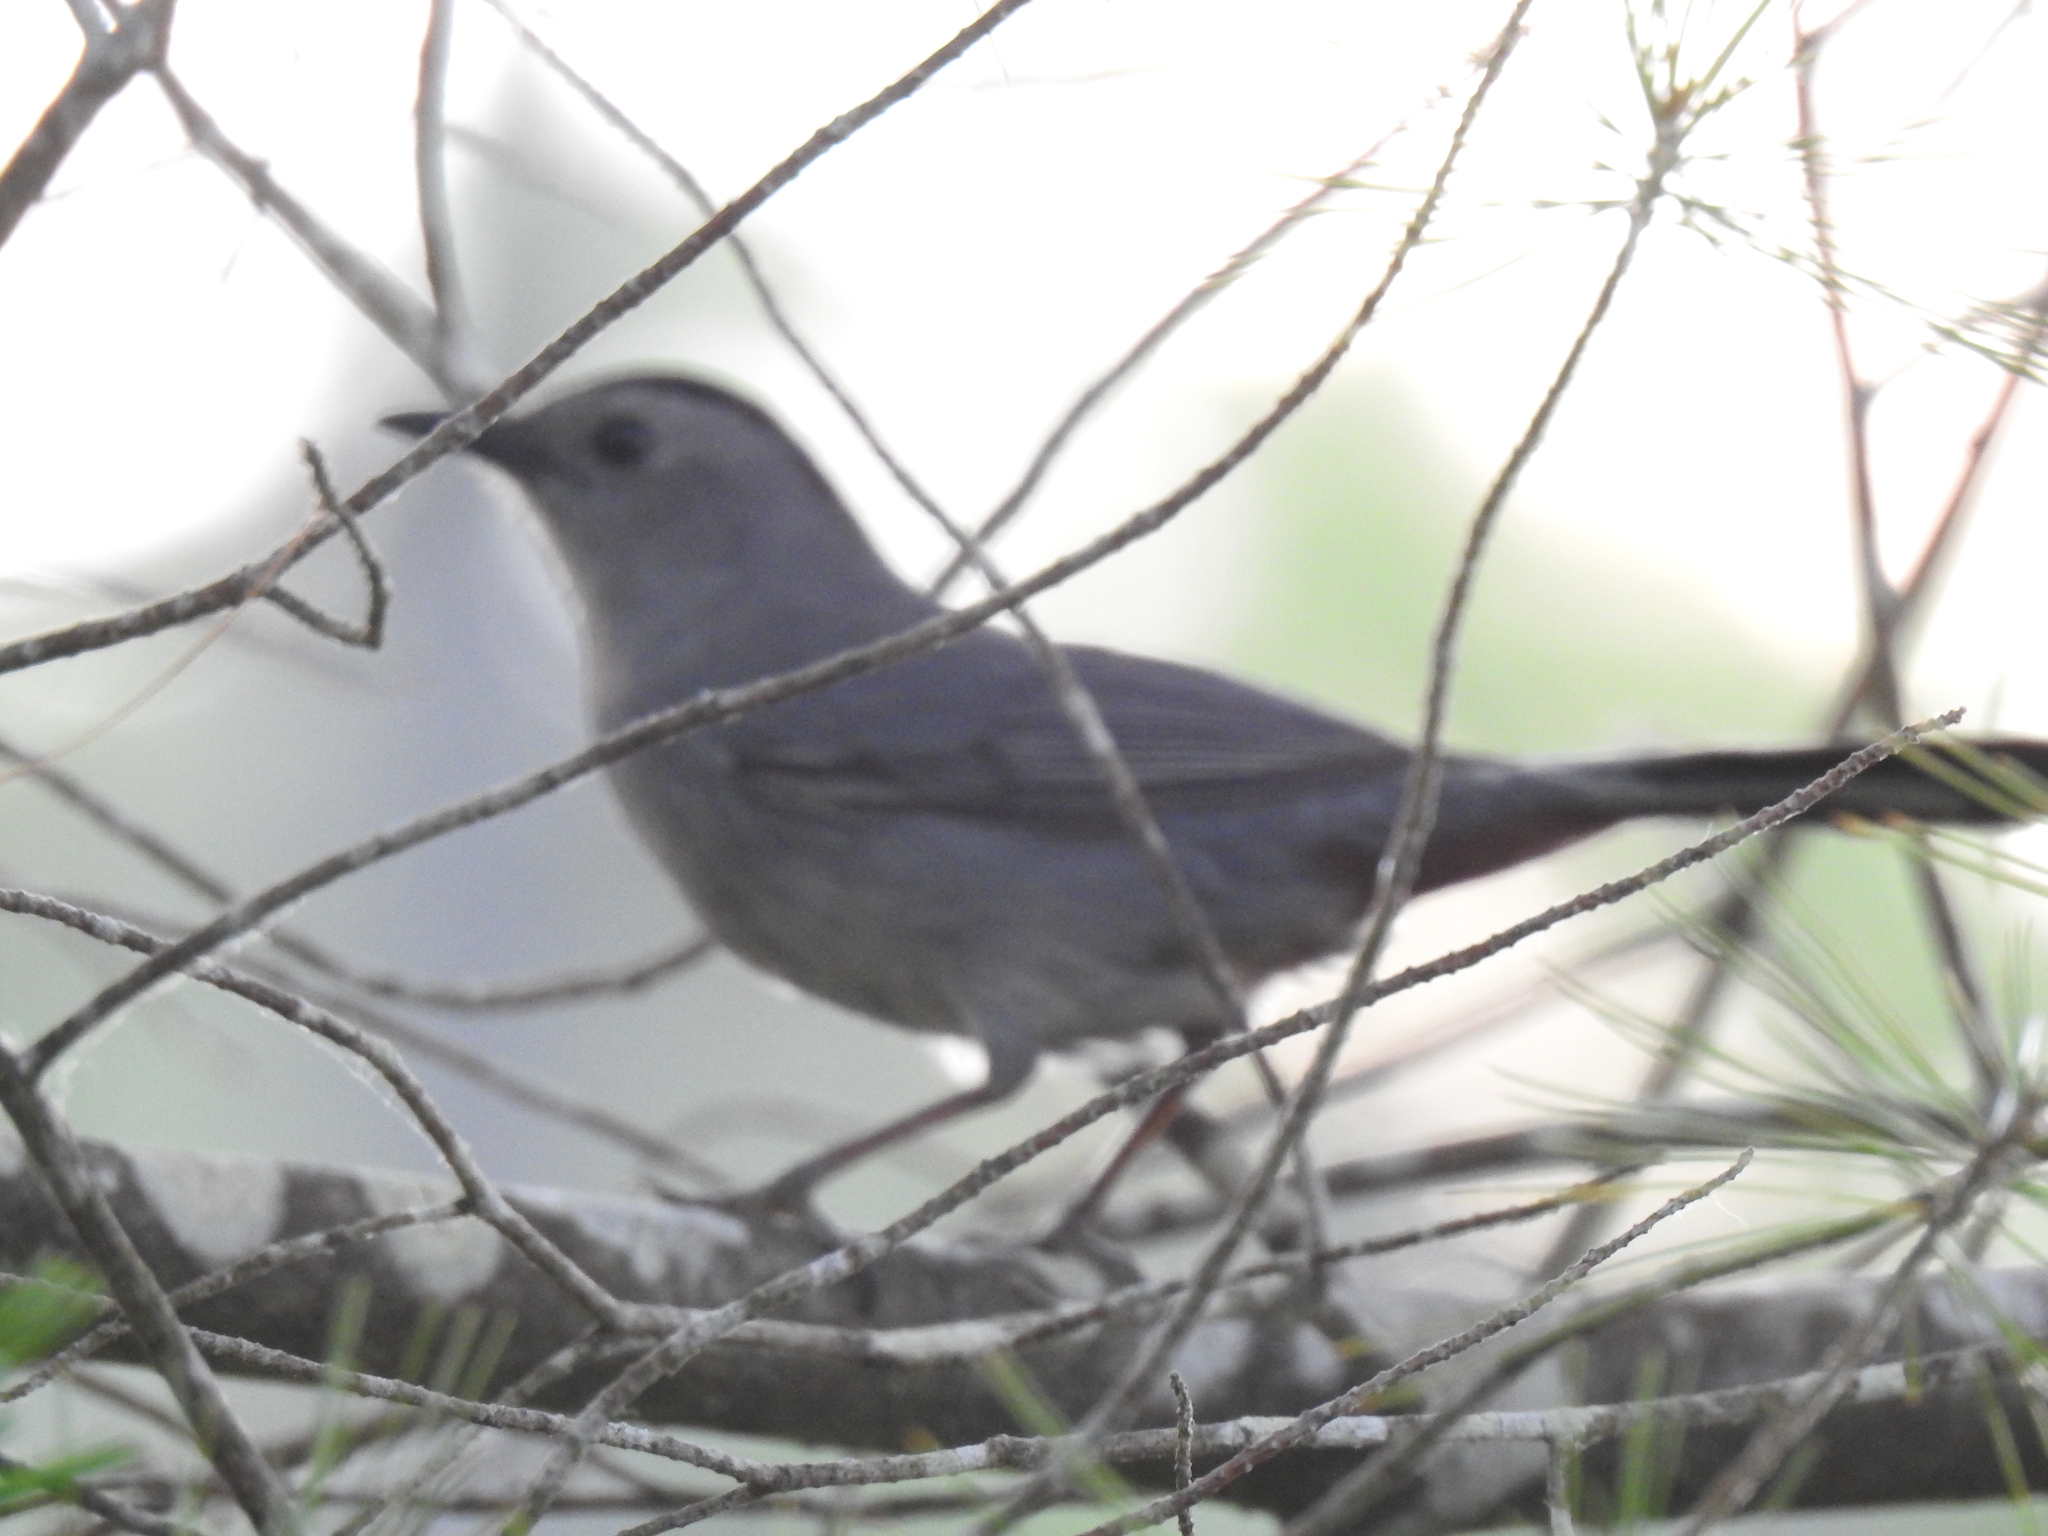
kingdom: Animalia
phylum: Chordata
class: Aves
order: Passeriformes
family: Mimidae
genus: Dumetella
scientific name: Dumetella carolinensis
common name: Gray catbird
